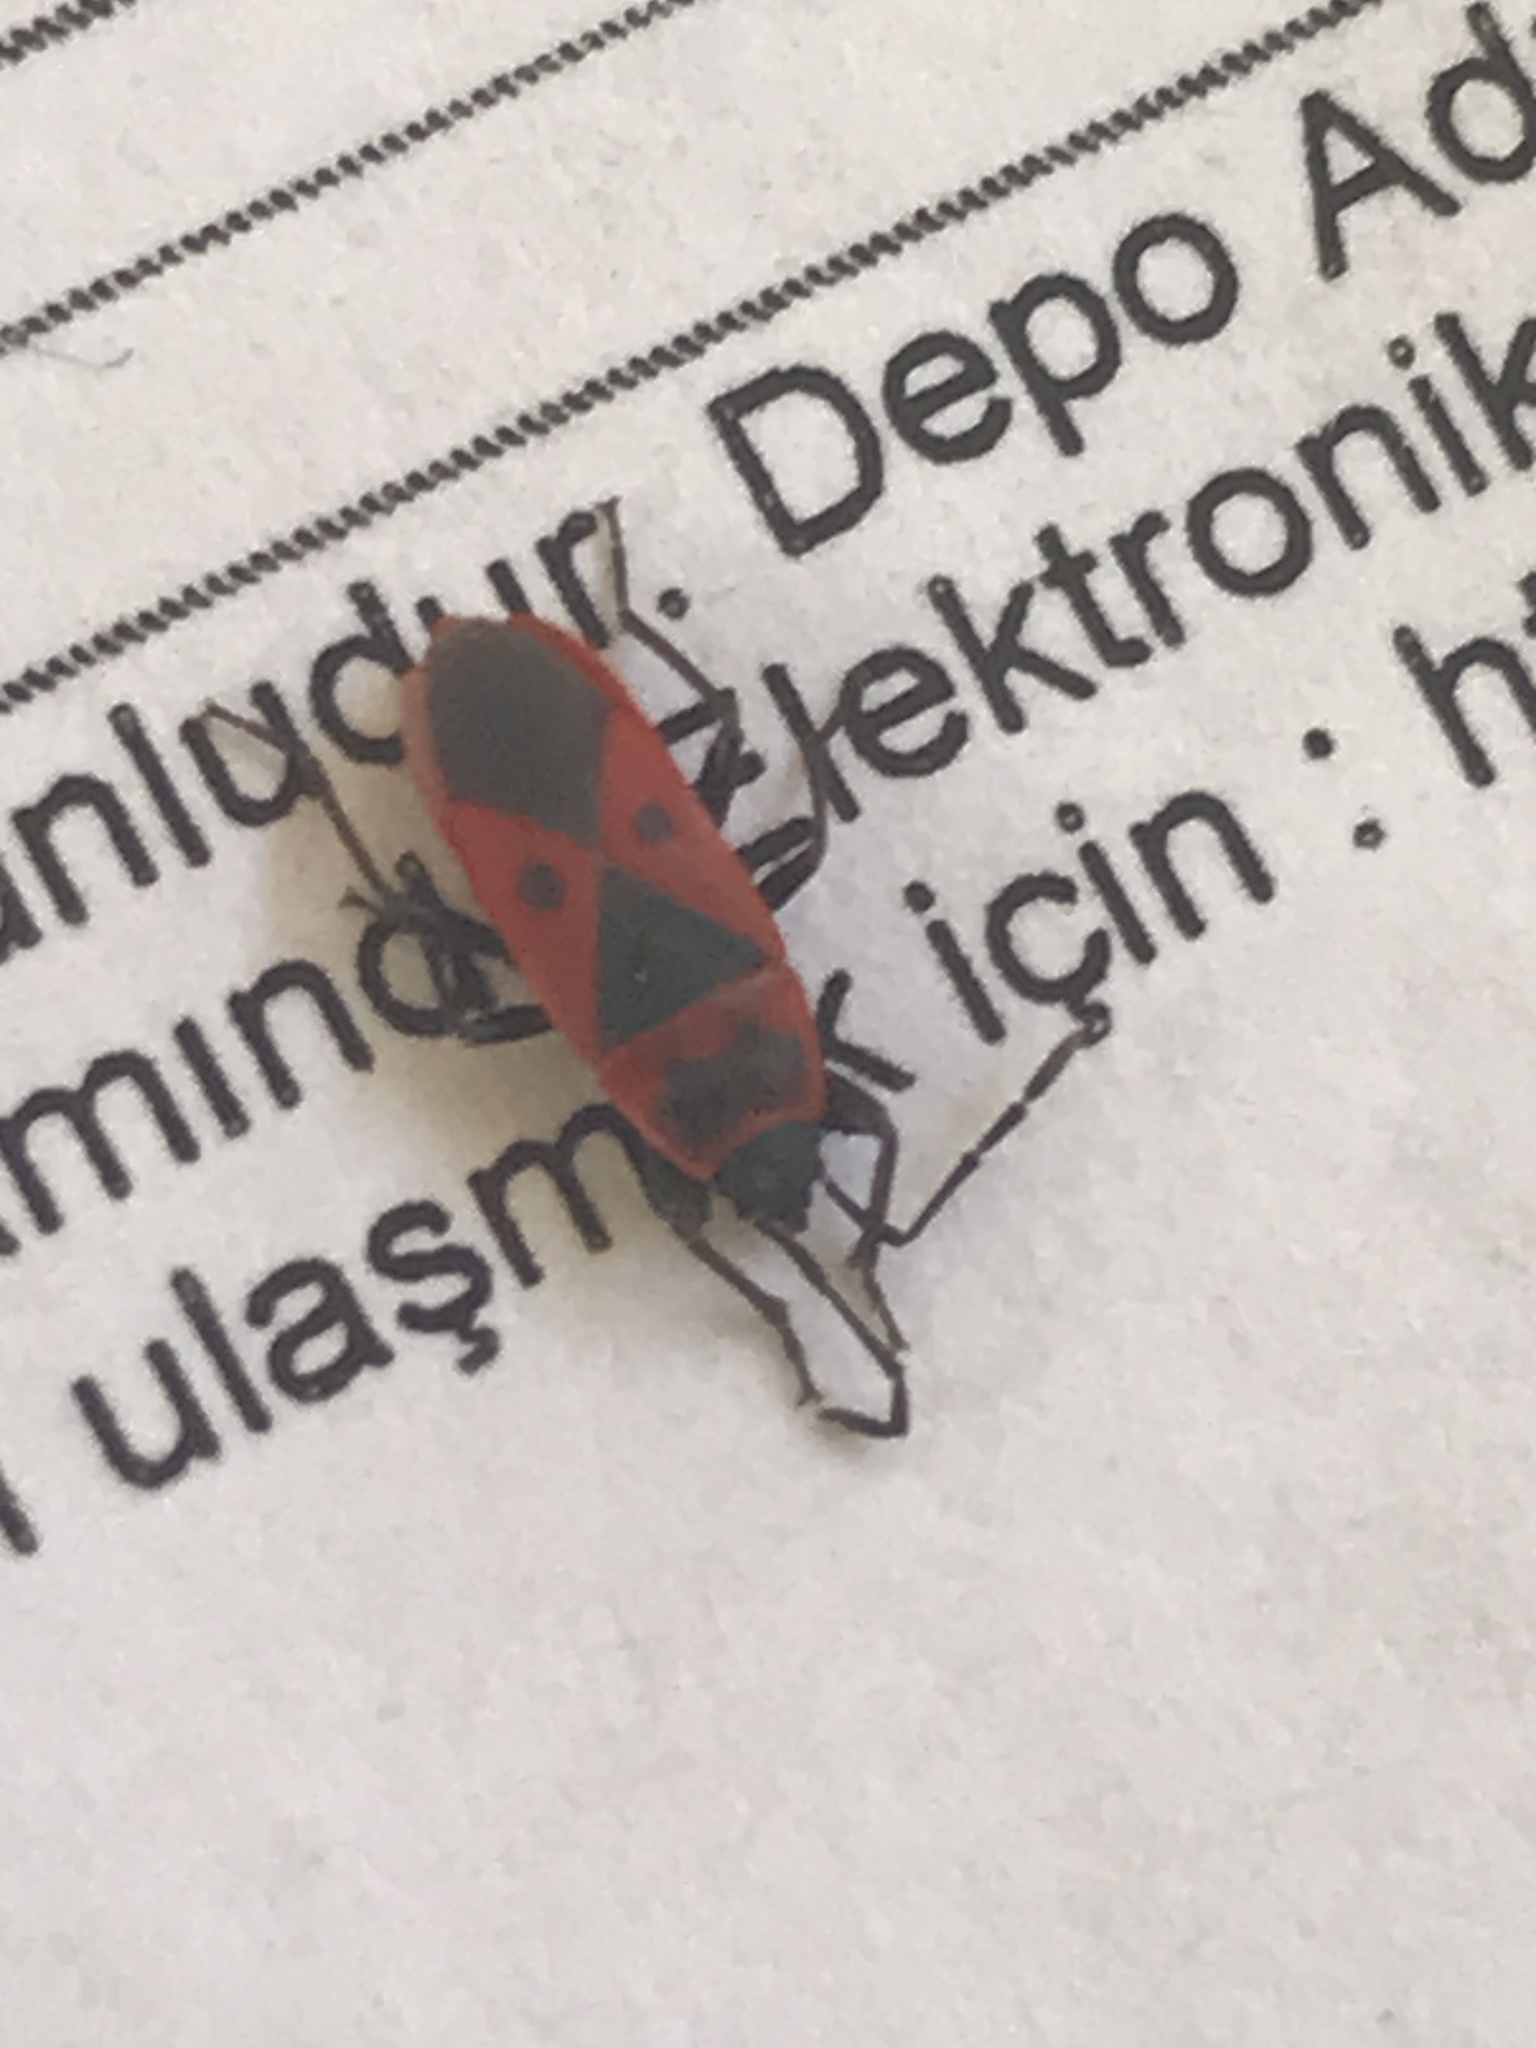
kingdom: Animalia
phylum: Arthropoda
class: Insecta
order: Hemiptera
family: Pyrrhocoridae
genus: Scantius
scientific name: Scantius aegyptius
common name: Red bug
